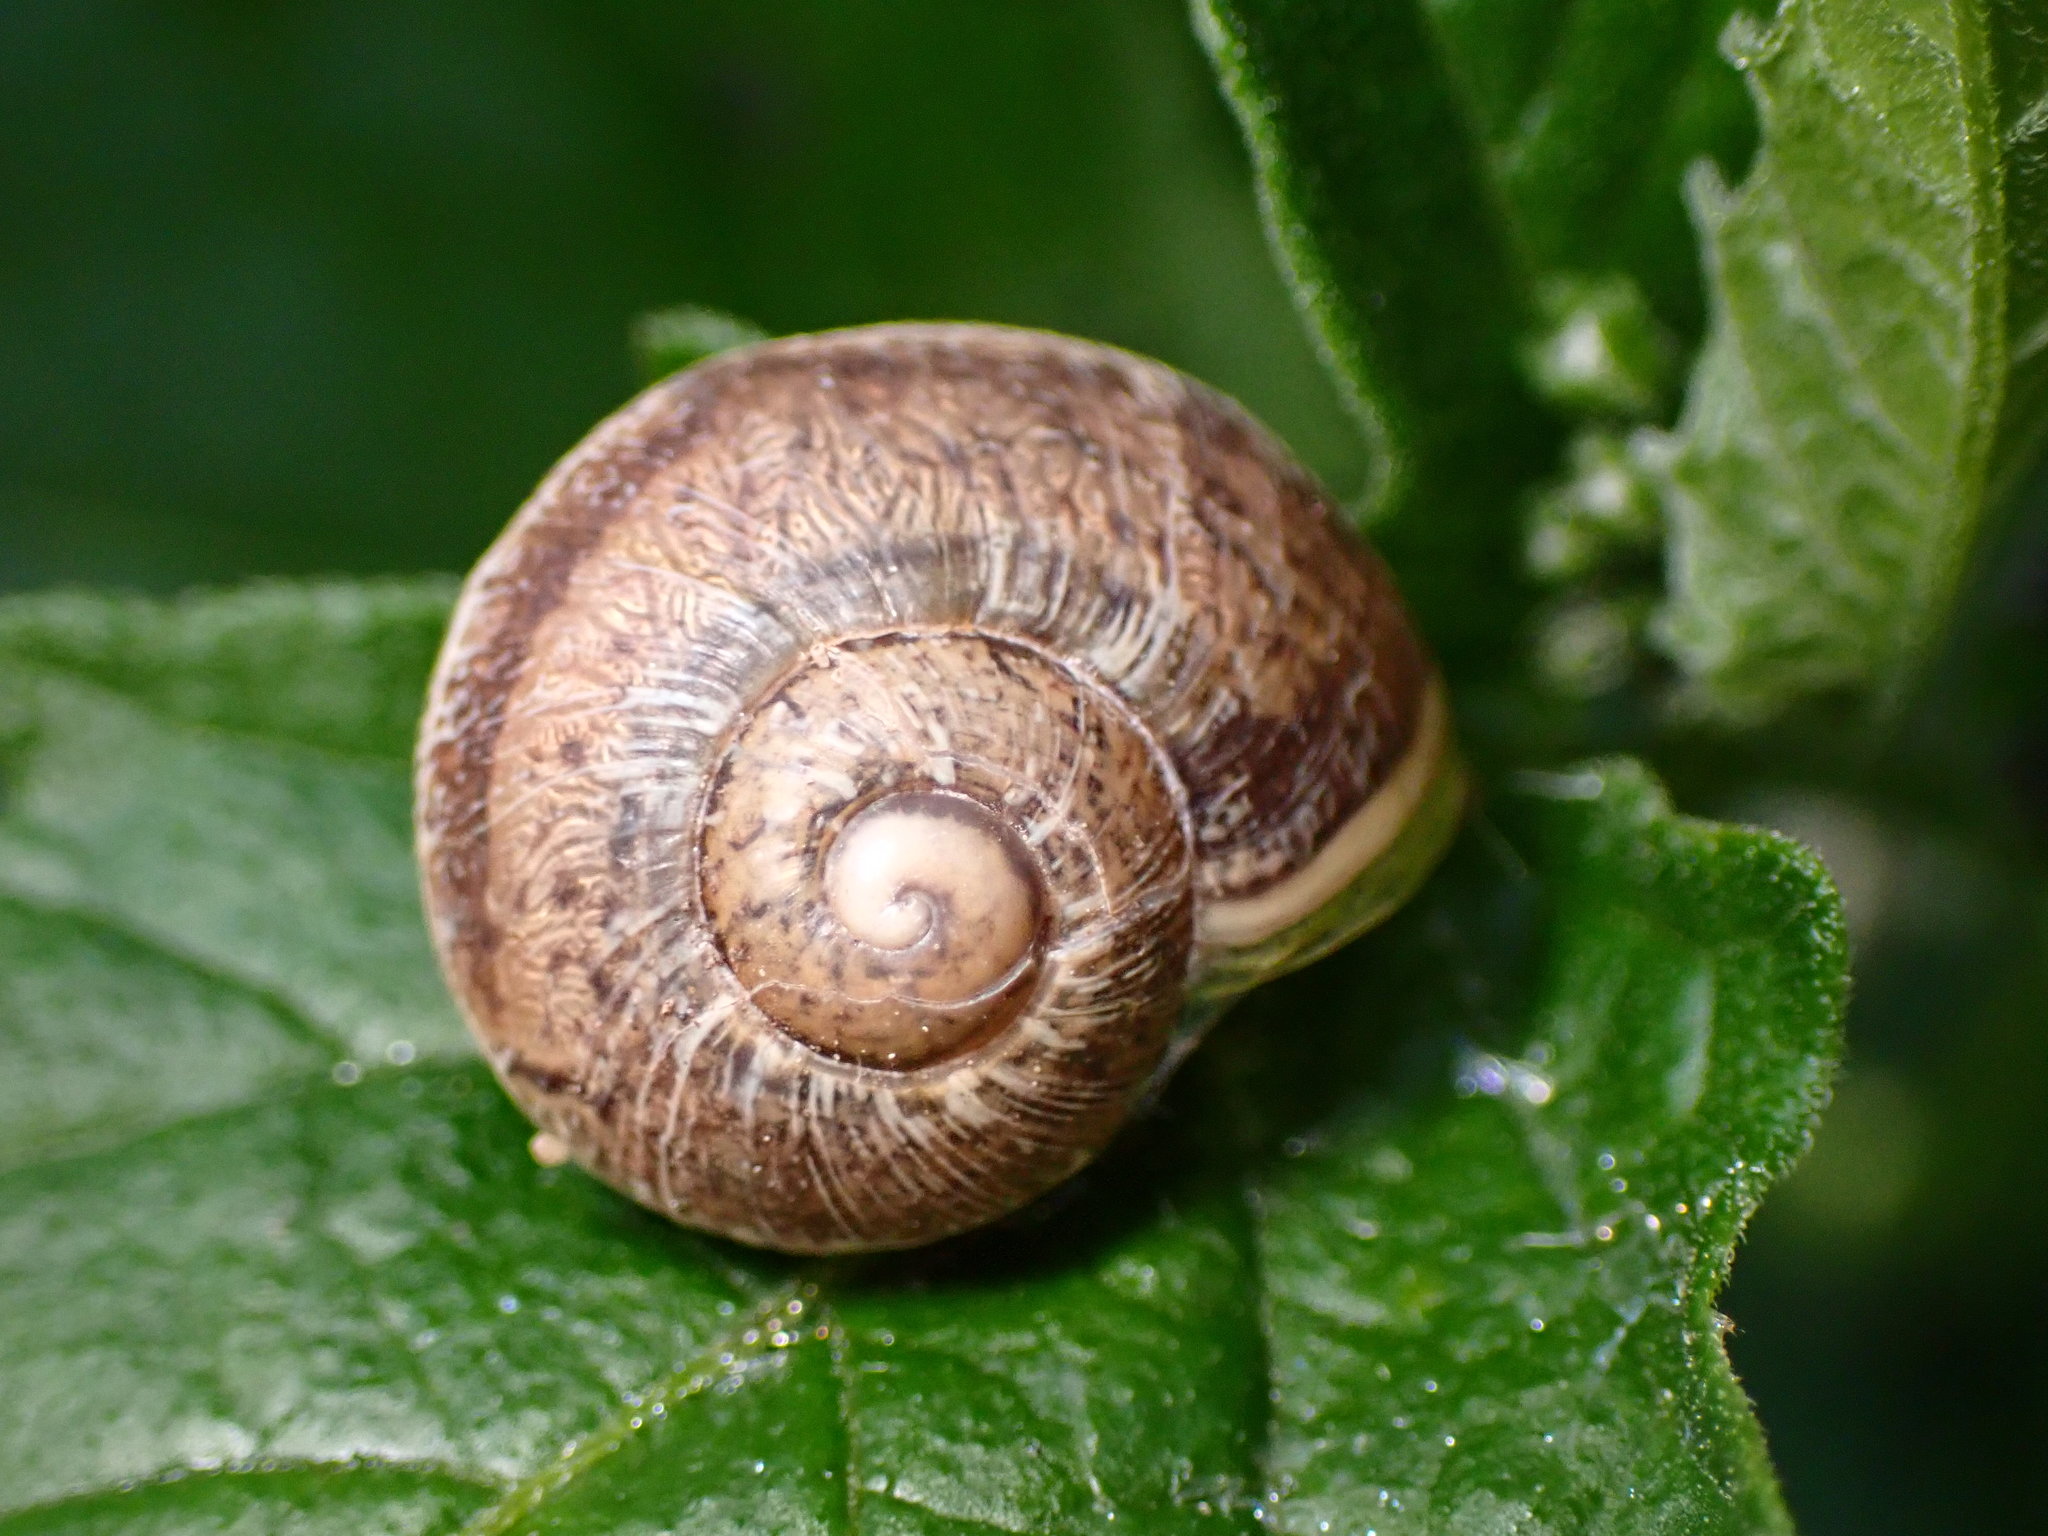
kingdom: Animalia
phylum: Mollusca
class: Gastropoda
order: Stylommatophora
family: Helicidae
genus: Cornu
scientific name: Cornu aspersum
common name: Brown garden snail
